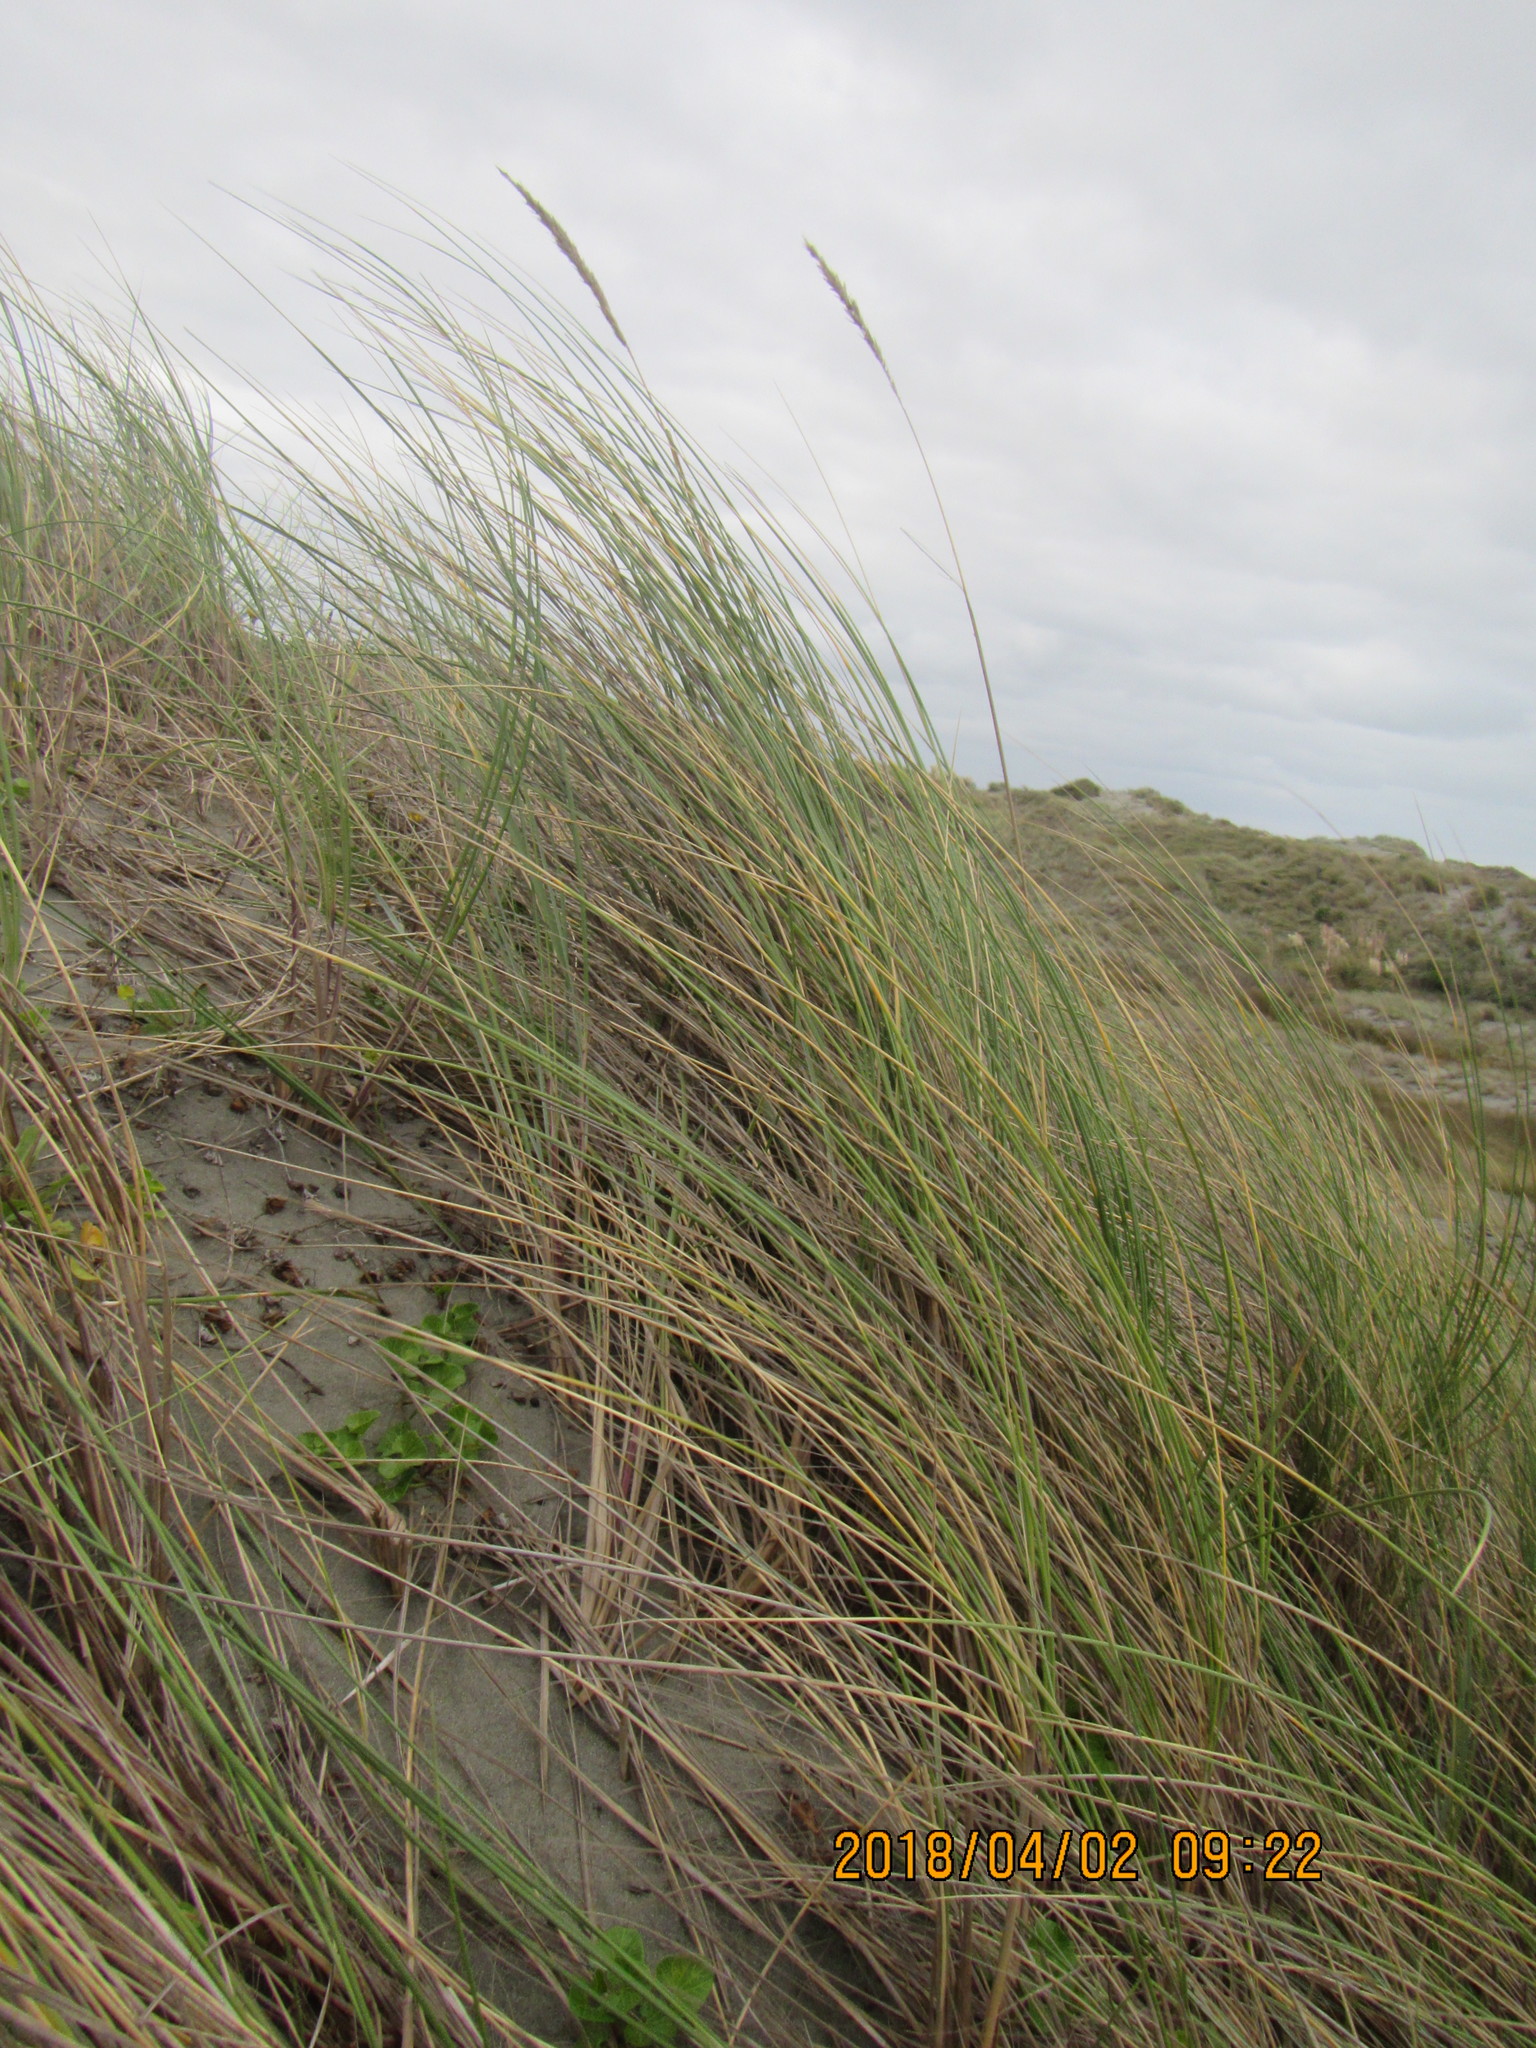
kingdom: Plantae
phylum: Tracheophyta
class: Liliopsida
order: Poales
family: Poaceae
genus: Calamagrostis
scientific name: Calamagrostis arenaria
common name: European beachgrass
